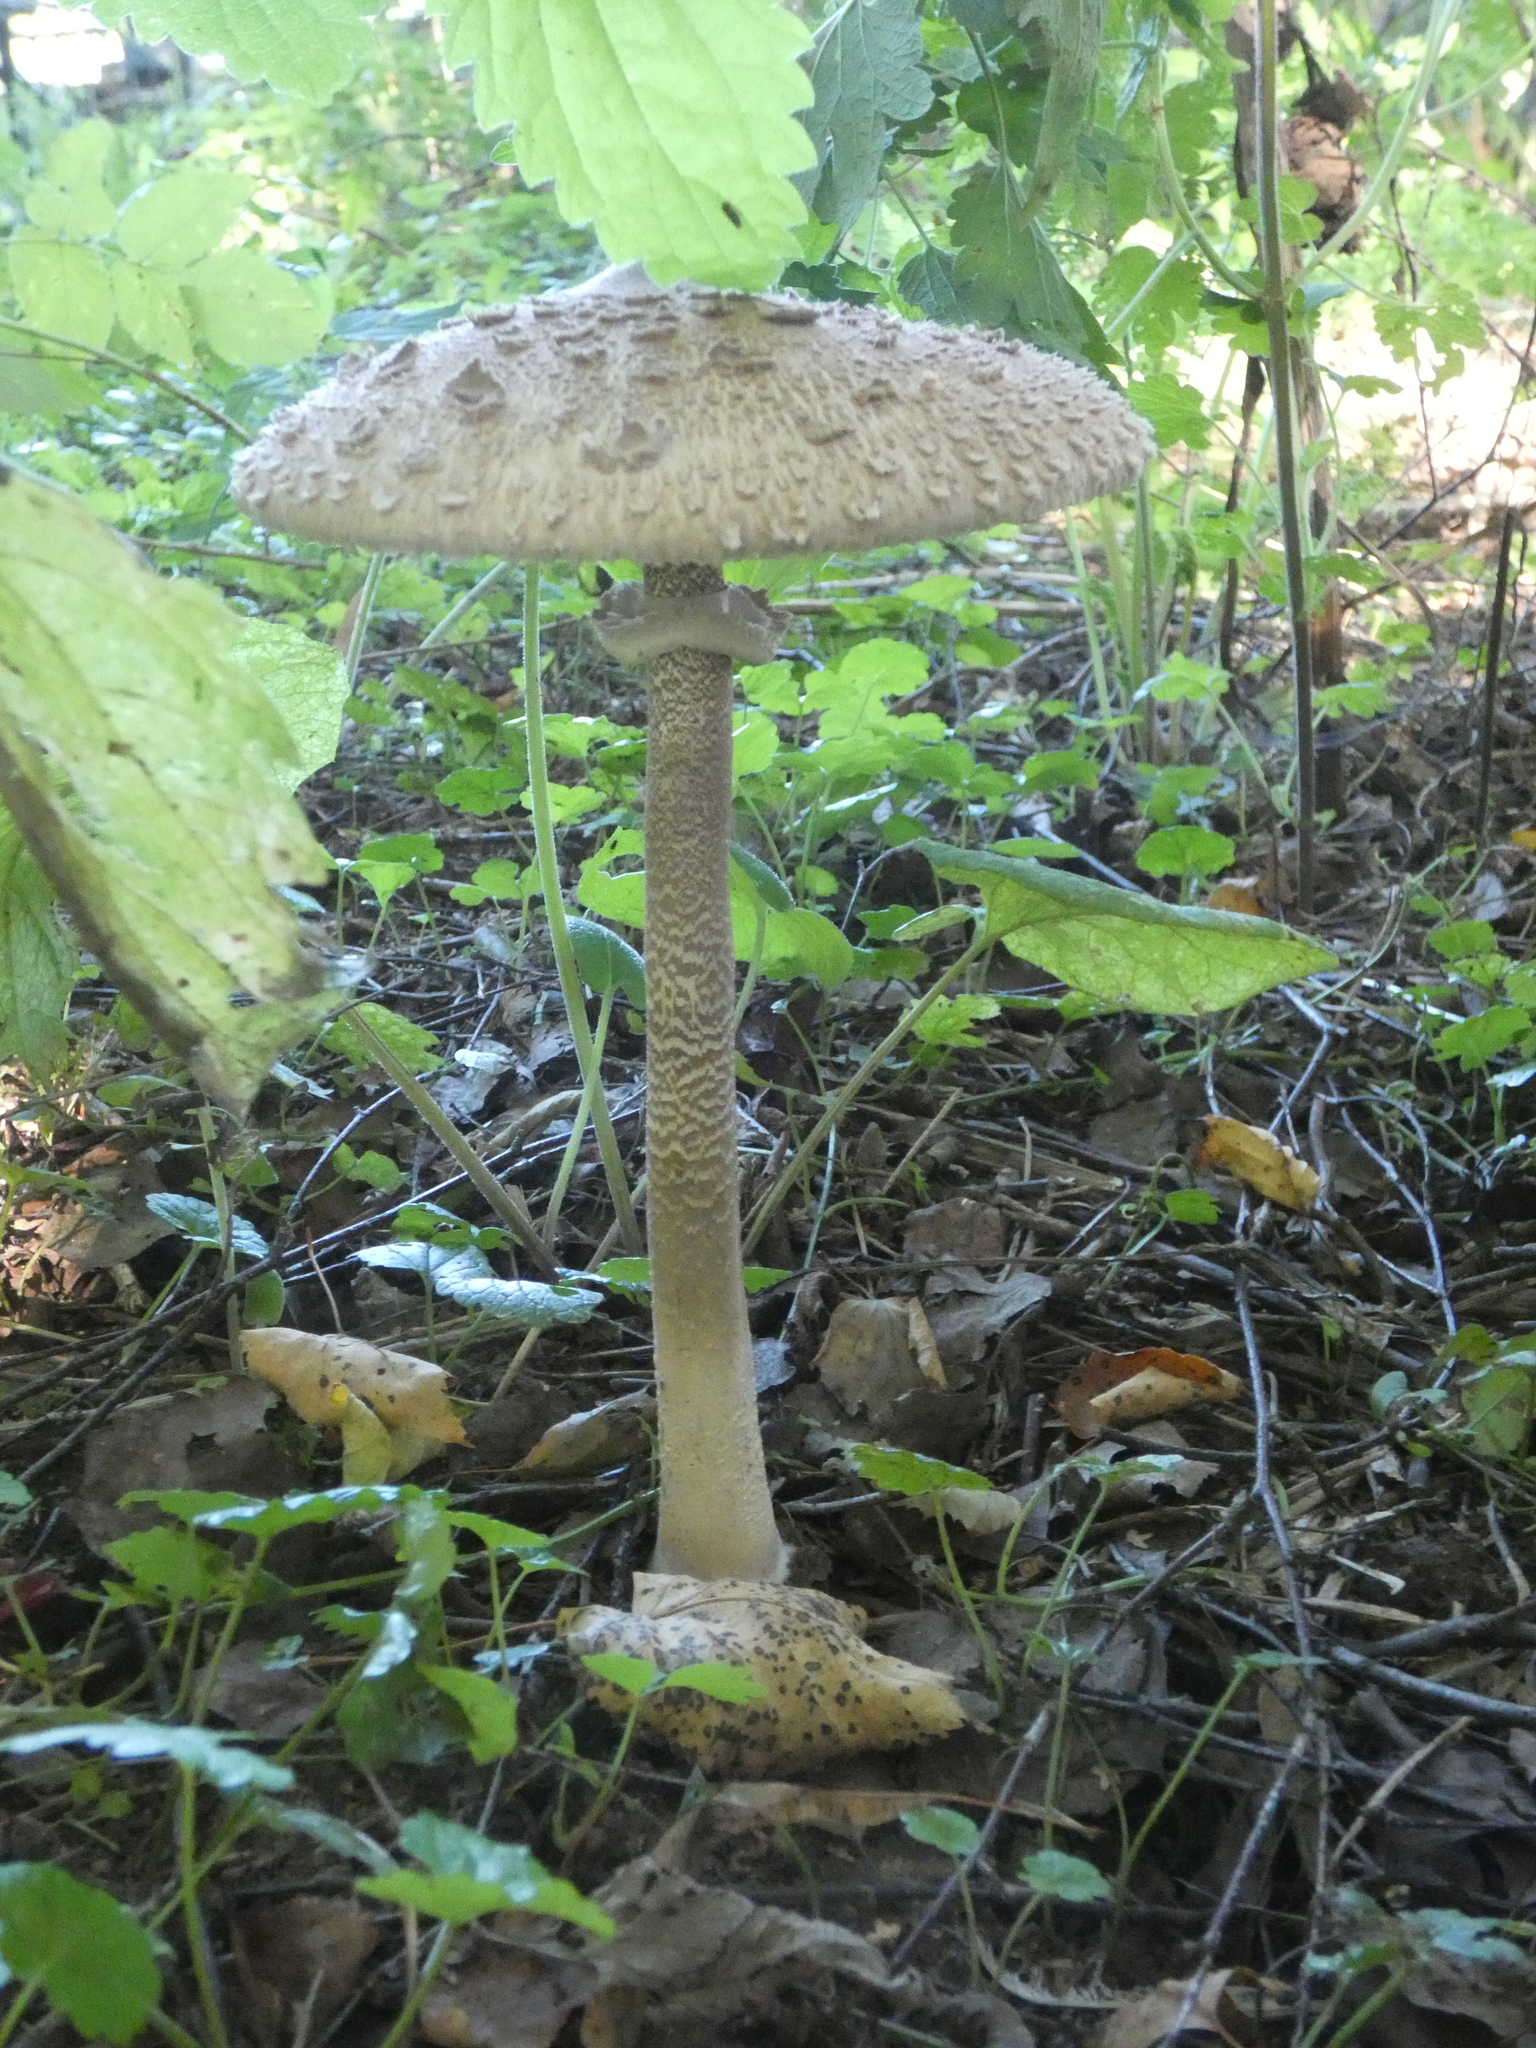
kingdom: Fungi
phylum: Basidiomycota
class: Agaricomycetes
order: Agaricales
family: Agaricaceae
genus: Macrolepiota
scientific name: Macrolepiota procera
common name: Parasol
